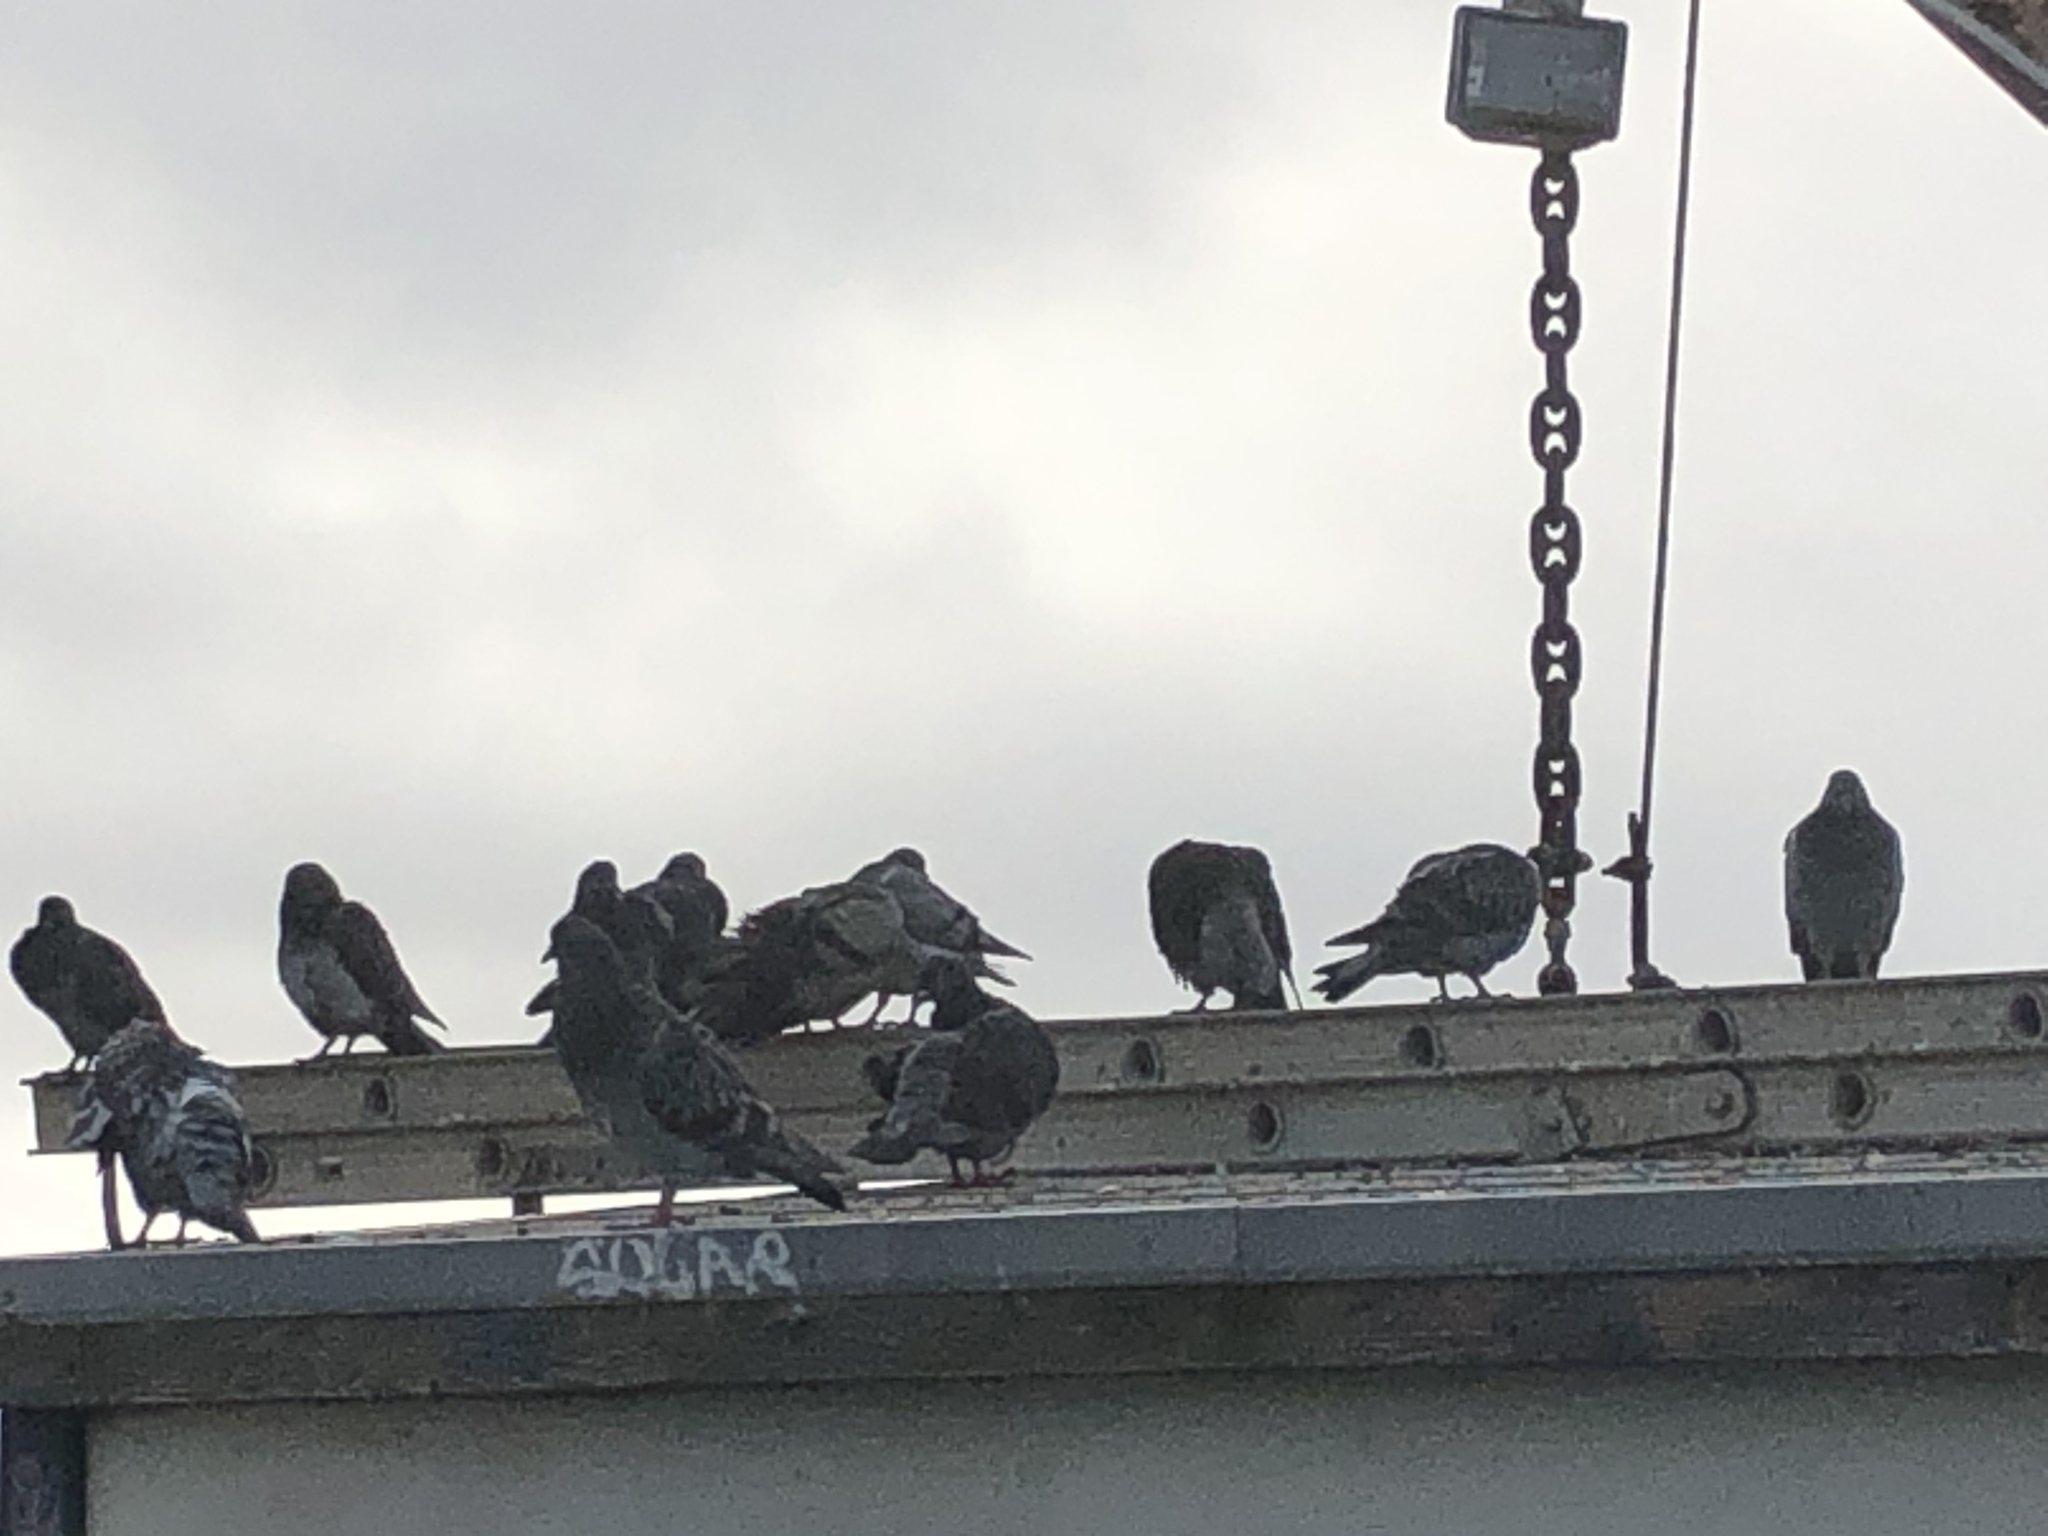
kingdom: Animalia
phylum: Chordata
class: Aves
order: Columbiformes
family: Columbidae
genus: Columba
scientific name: Columba livia
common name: Rock pigeon
